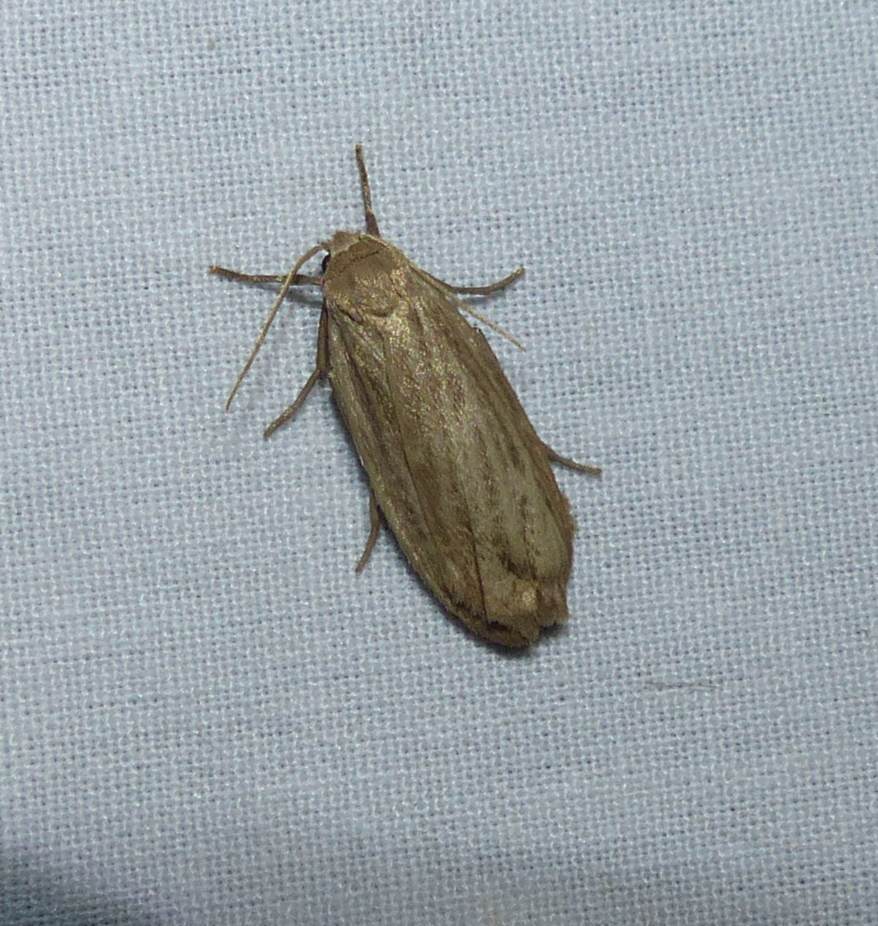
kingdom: Animalia
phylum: Arthropoda
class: Insecta
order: Lepidoptera
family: Erebidae
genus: Crambidia
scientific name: Crambidia pallida
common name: Pale lichen moth
